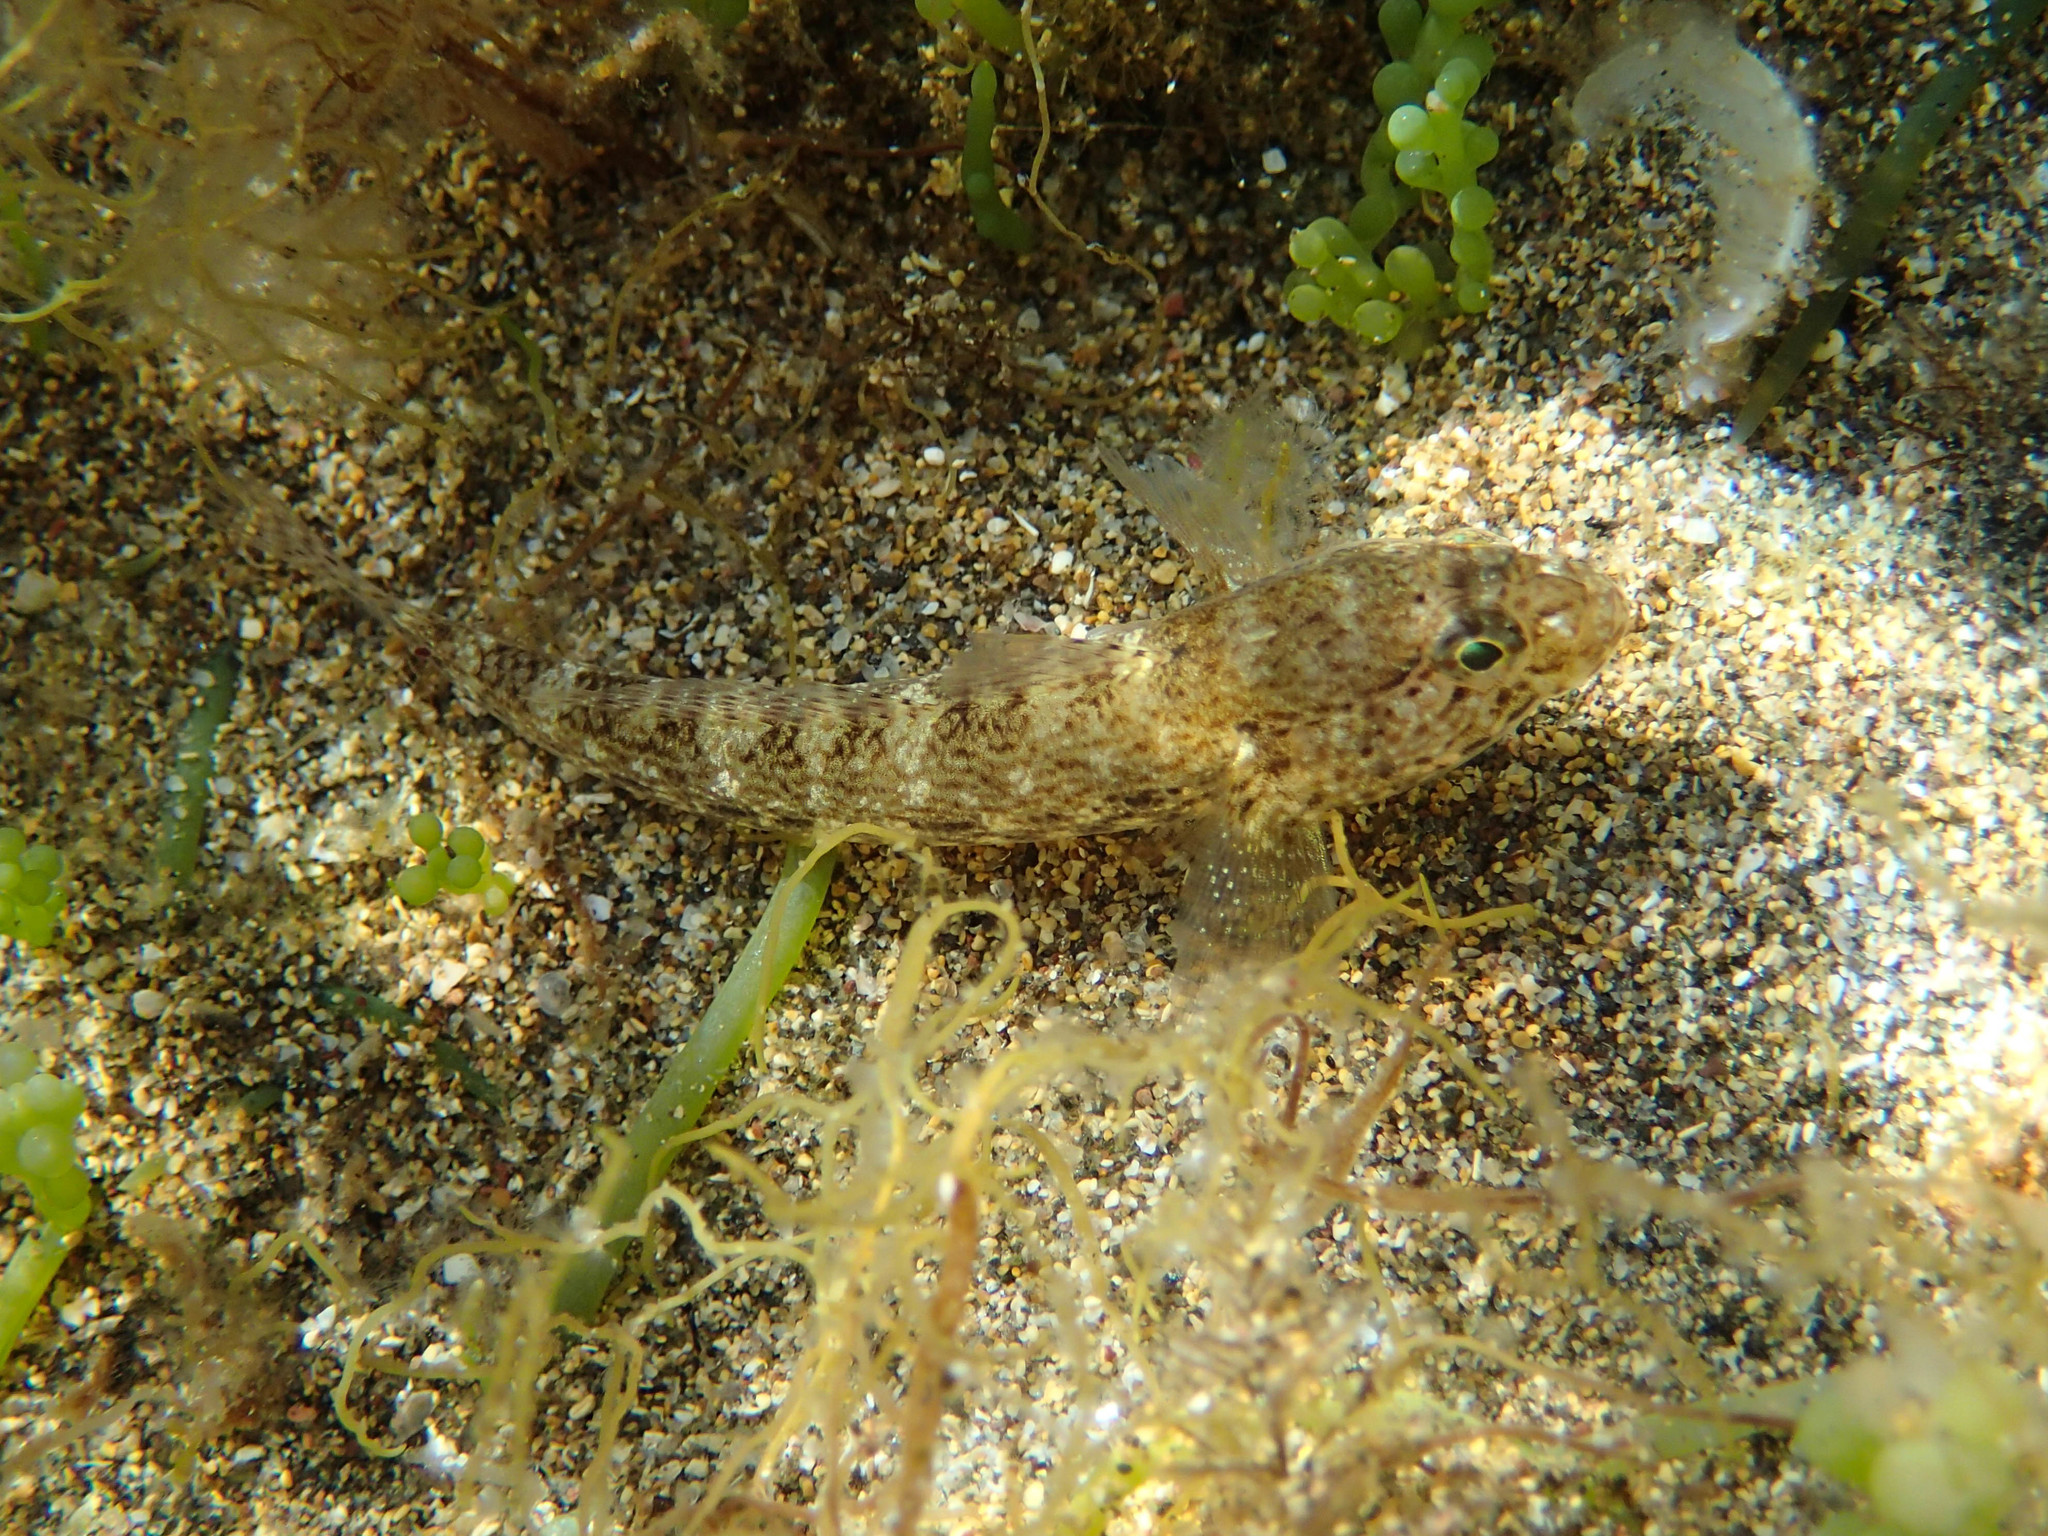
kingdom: Animalia
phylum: Chordata
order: Perciformes
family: Gobiidae
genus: Gobius
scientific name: Gobius incognitus
